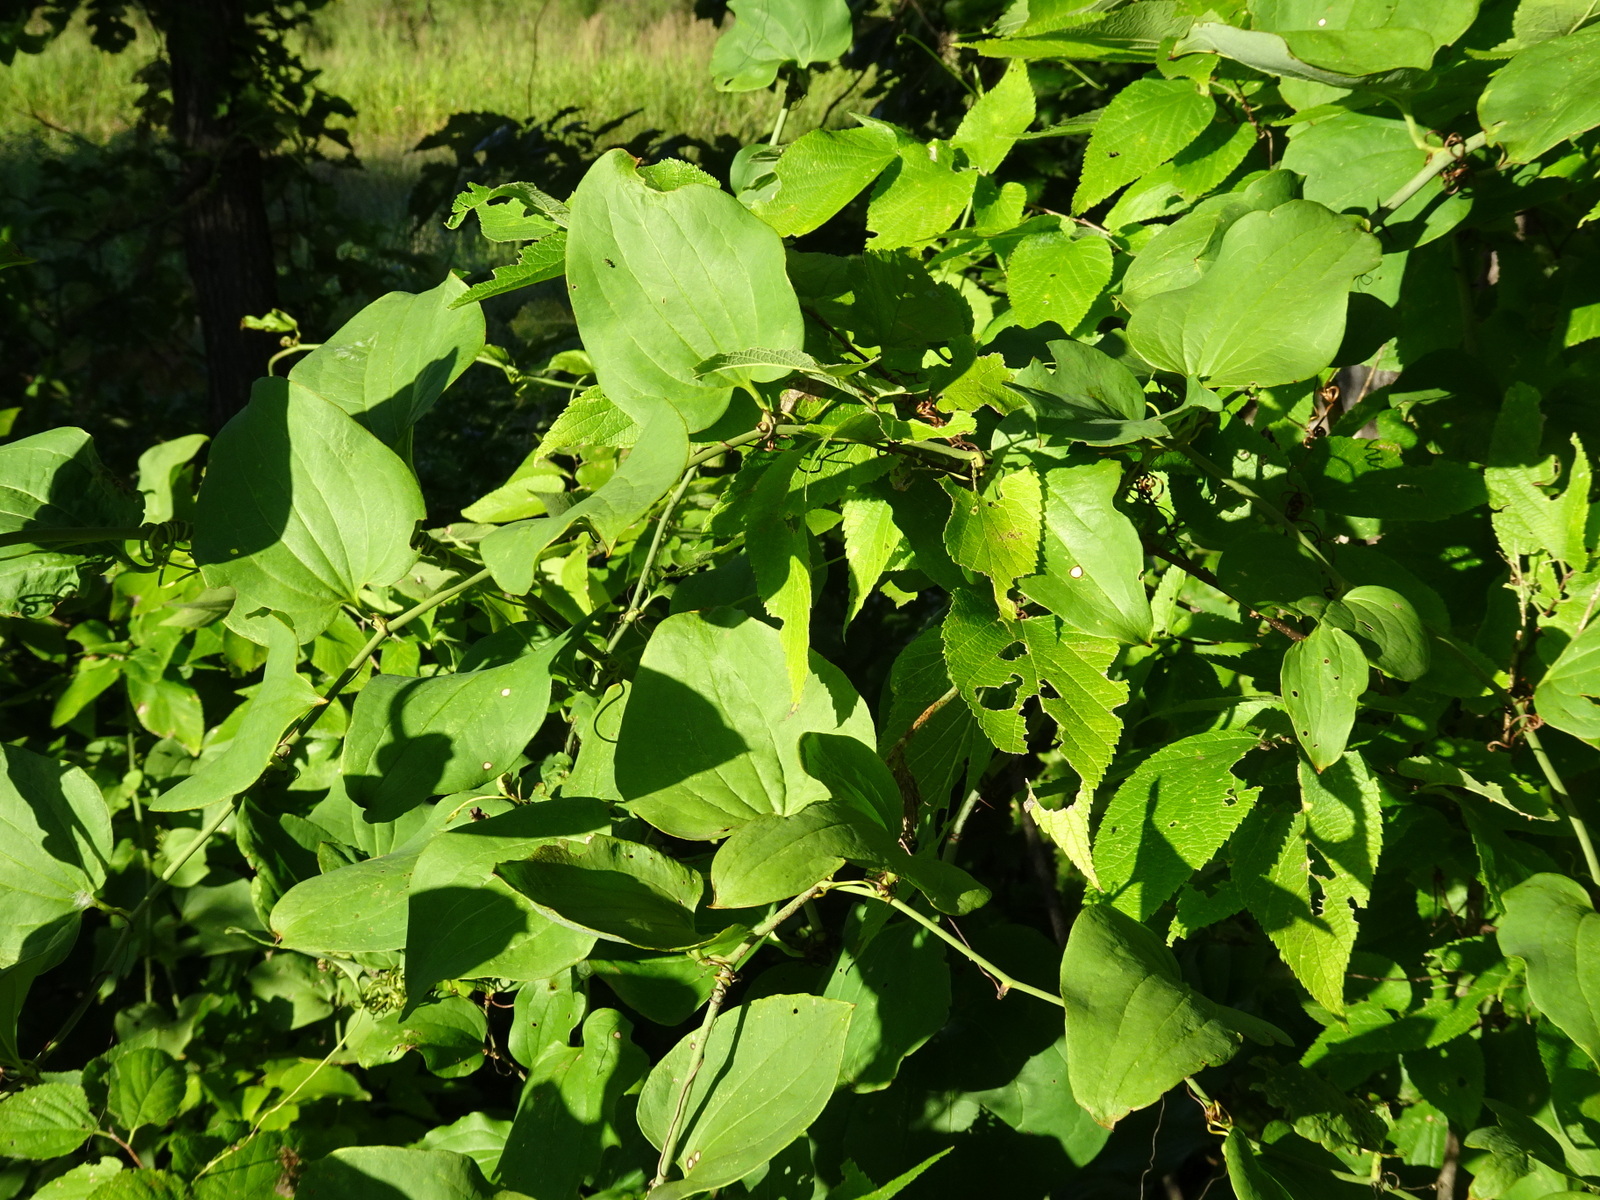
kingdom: Plantae
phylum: Tracheophyta
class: Liliopsida
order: Liliales
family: Smilacaceae
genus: Smilax
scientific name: Smilax tamnoides
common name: Hellfetter
